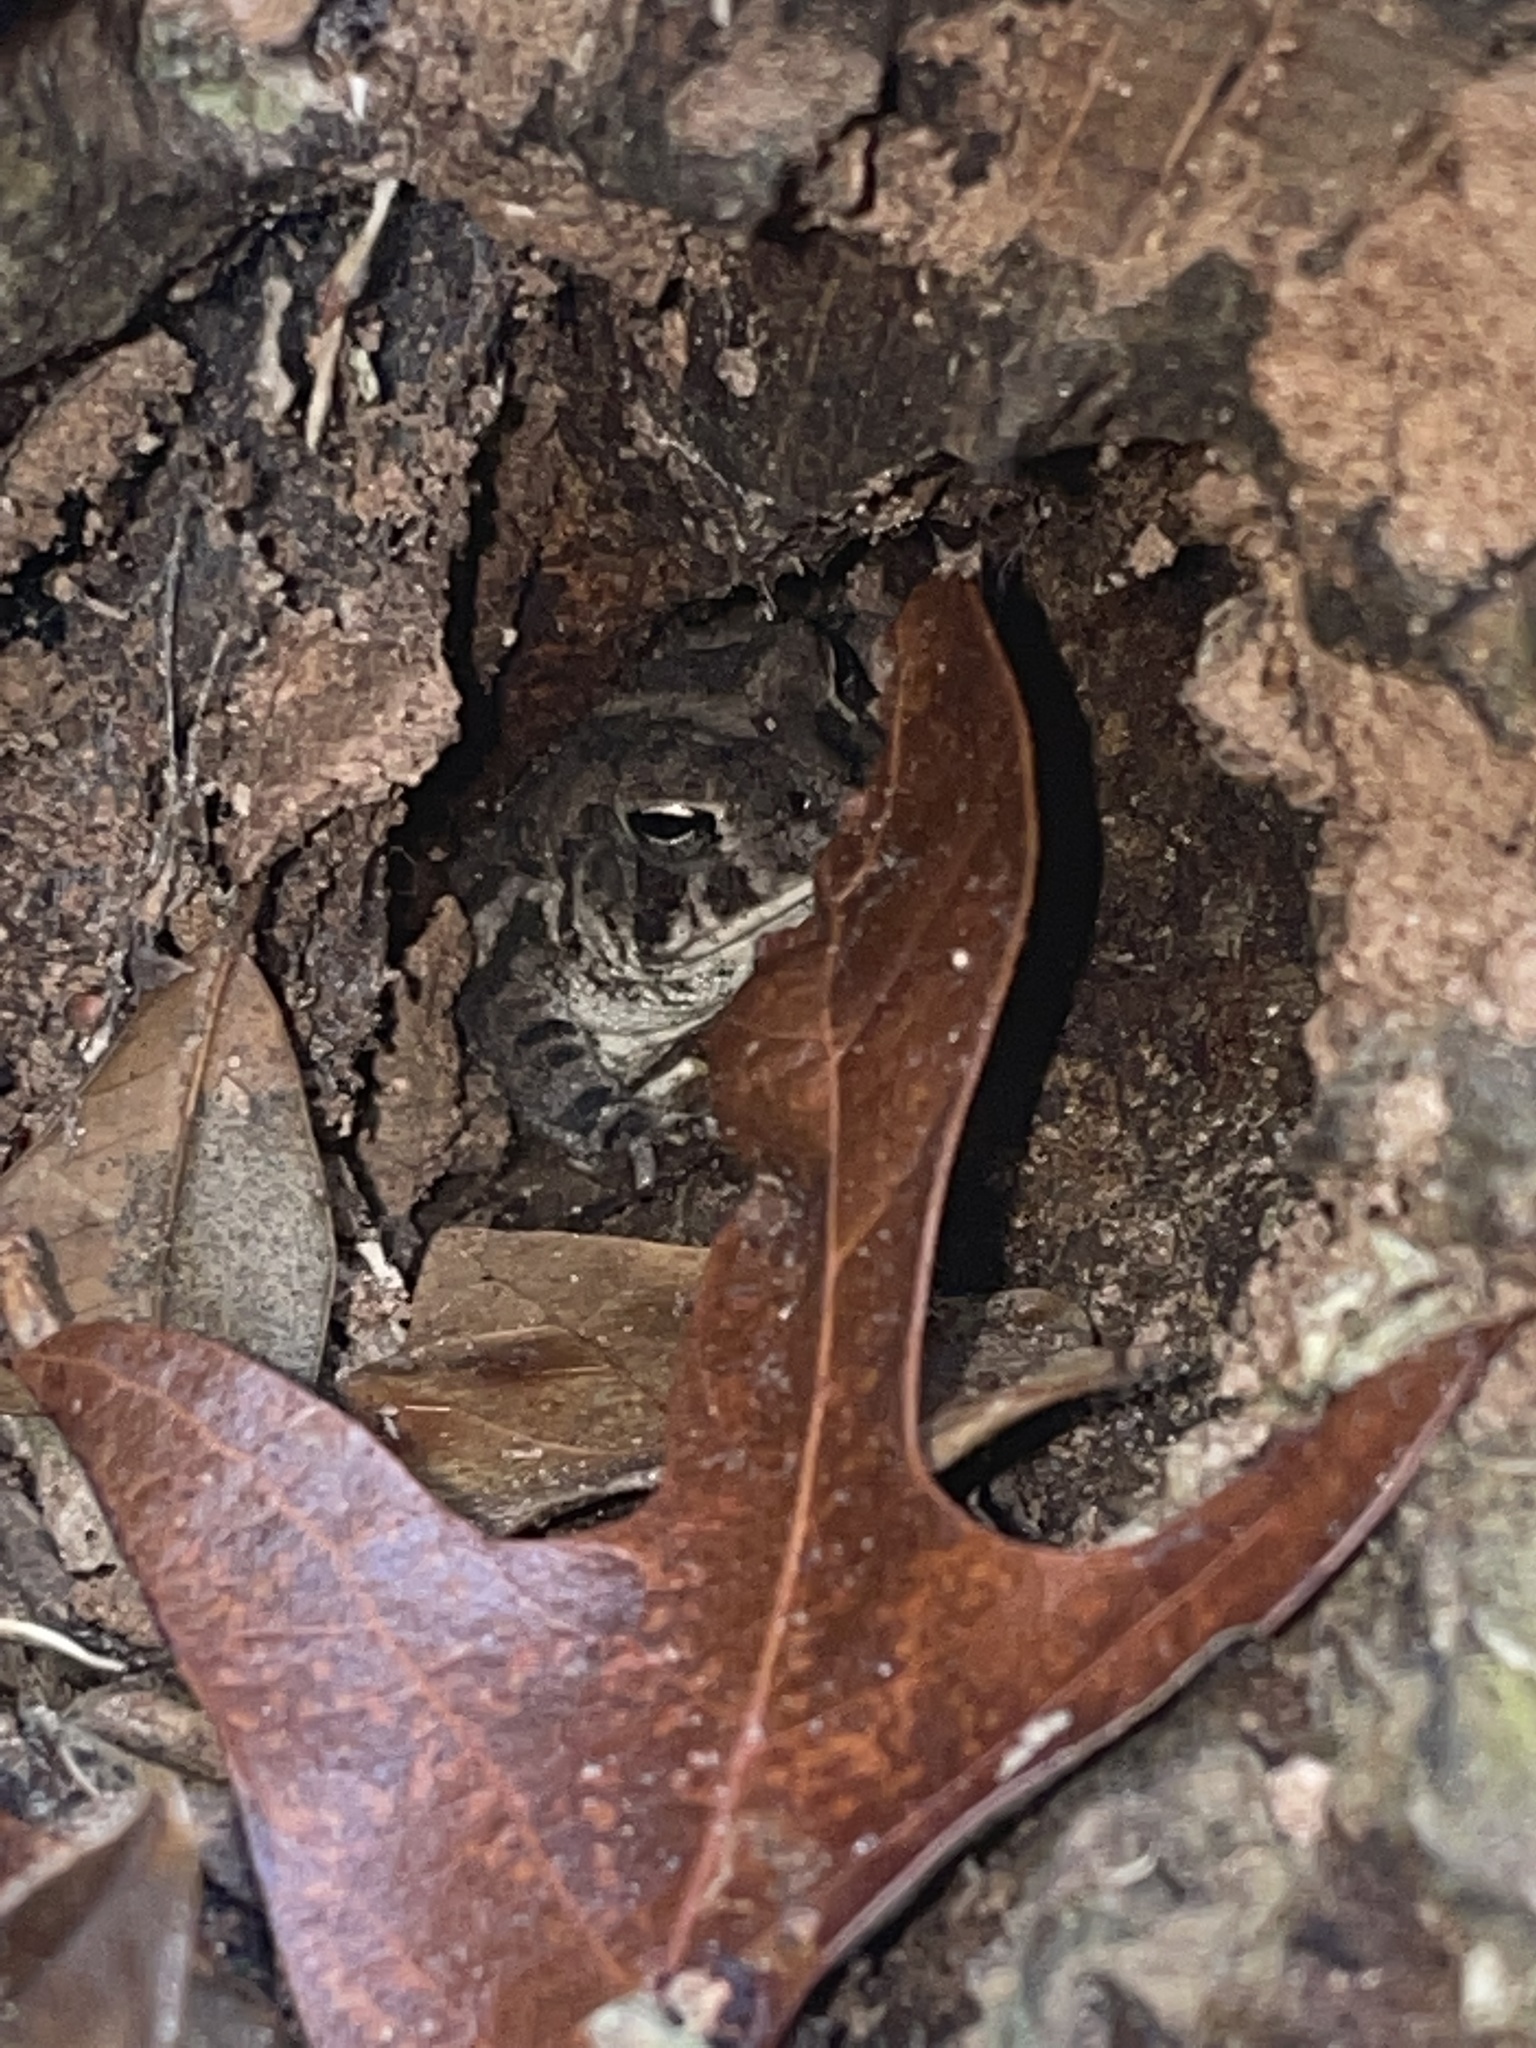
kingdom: Animalia
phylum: Chordata
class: Amphibia
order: Anura
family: Bufonidae
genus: Anaxyrus
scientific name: Anaxyrus fowleri
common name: Fowler's toad
